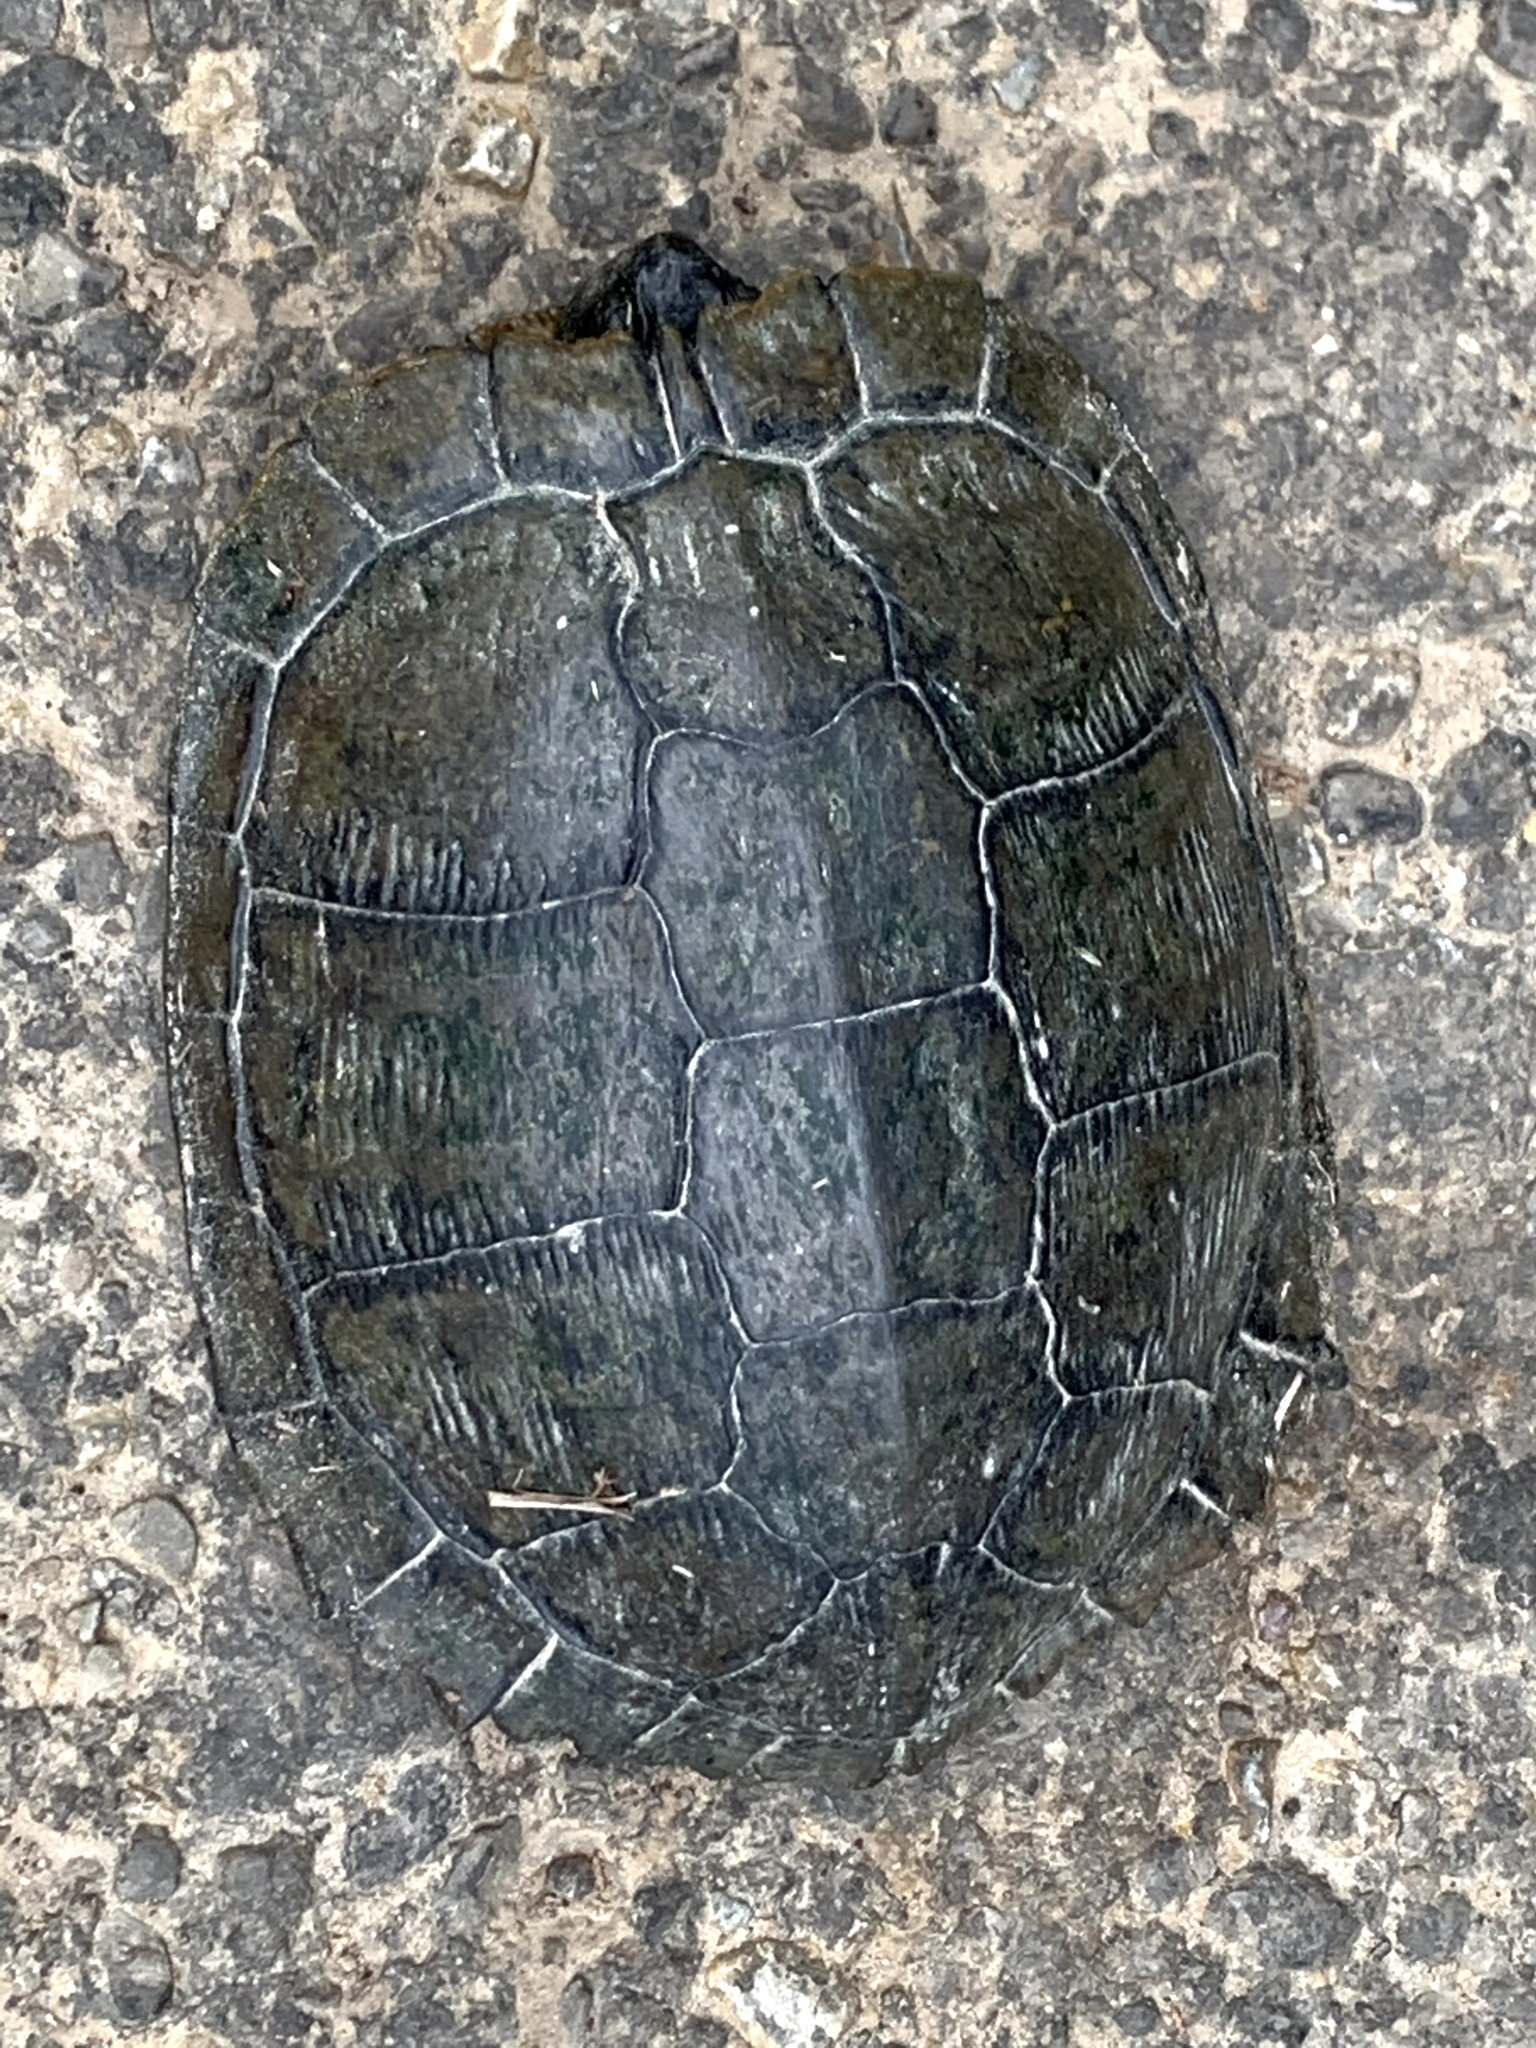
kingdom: Animalia
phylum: Chordata
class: Testudines
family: Chelydridae
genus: Chelydra
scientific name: Chelydra serpentina
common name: Common snapping turtle
